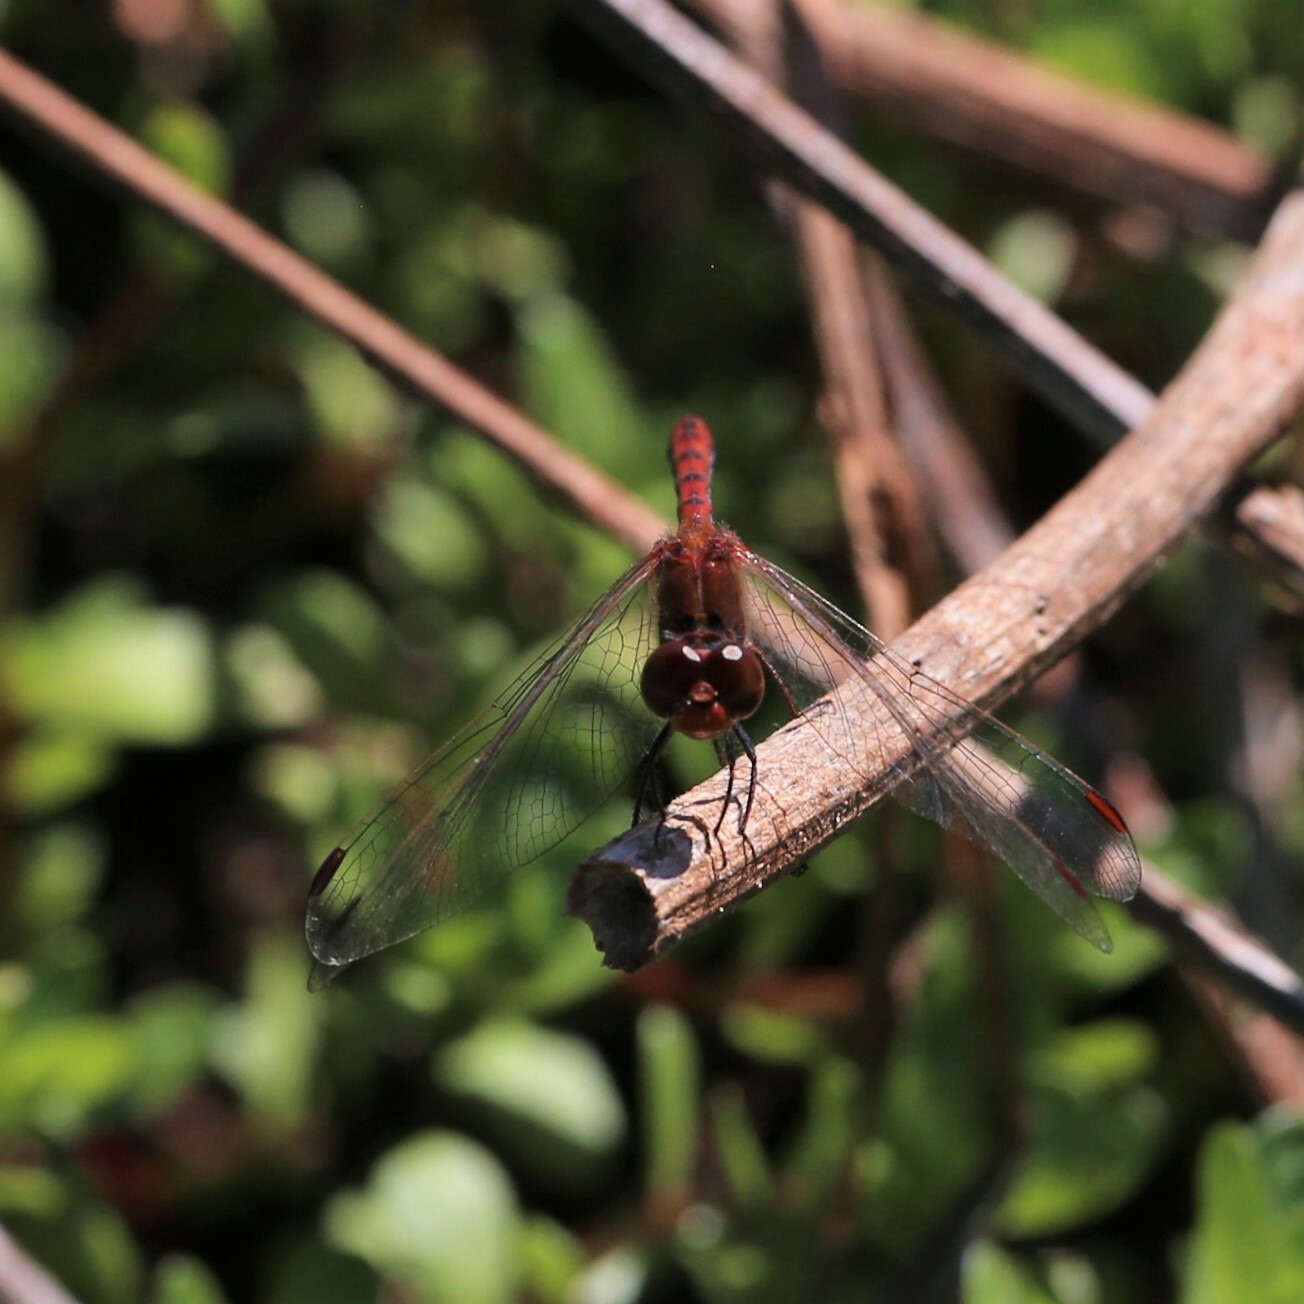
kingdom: Animalia
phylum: Arthropoda
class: Insecta
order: Odonata
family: Libellulidae
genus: Diplacodes
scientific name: Diplacodes bipunctata
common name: Red percher dragonfly
